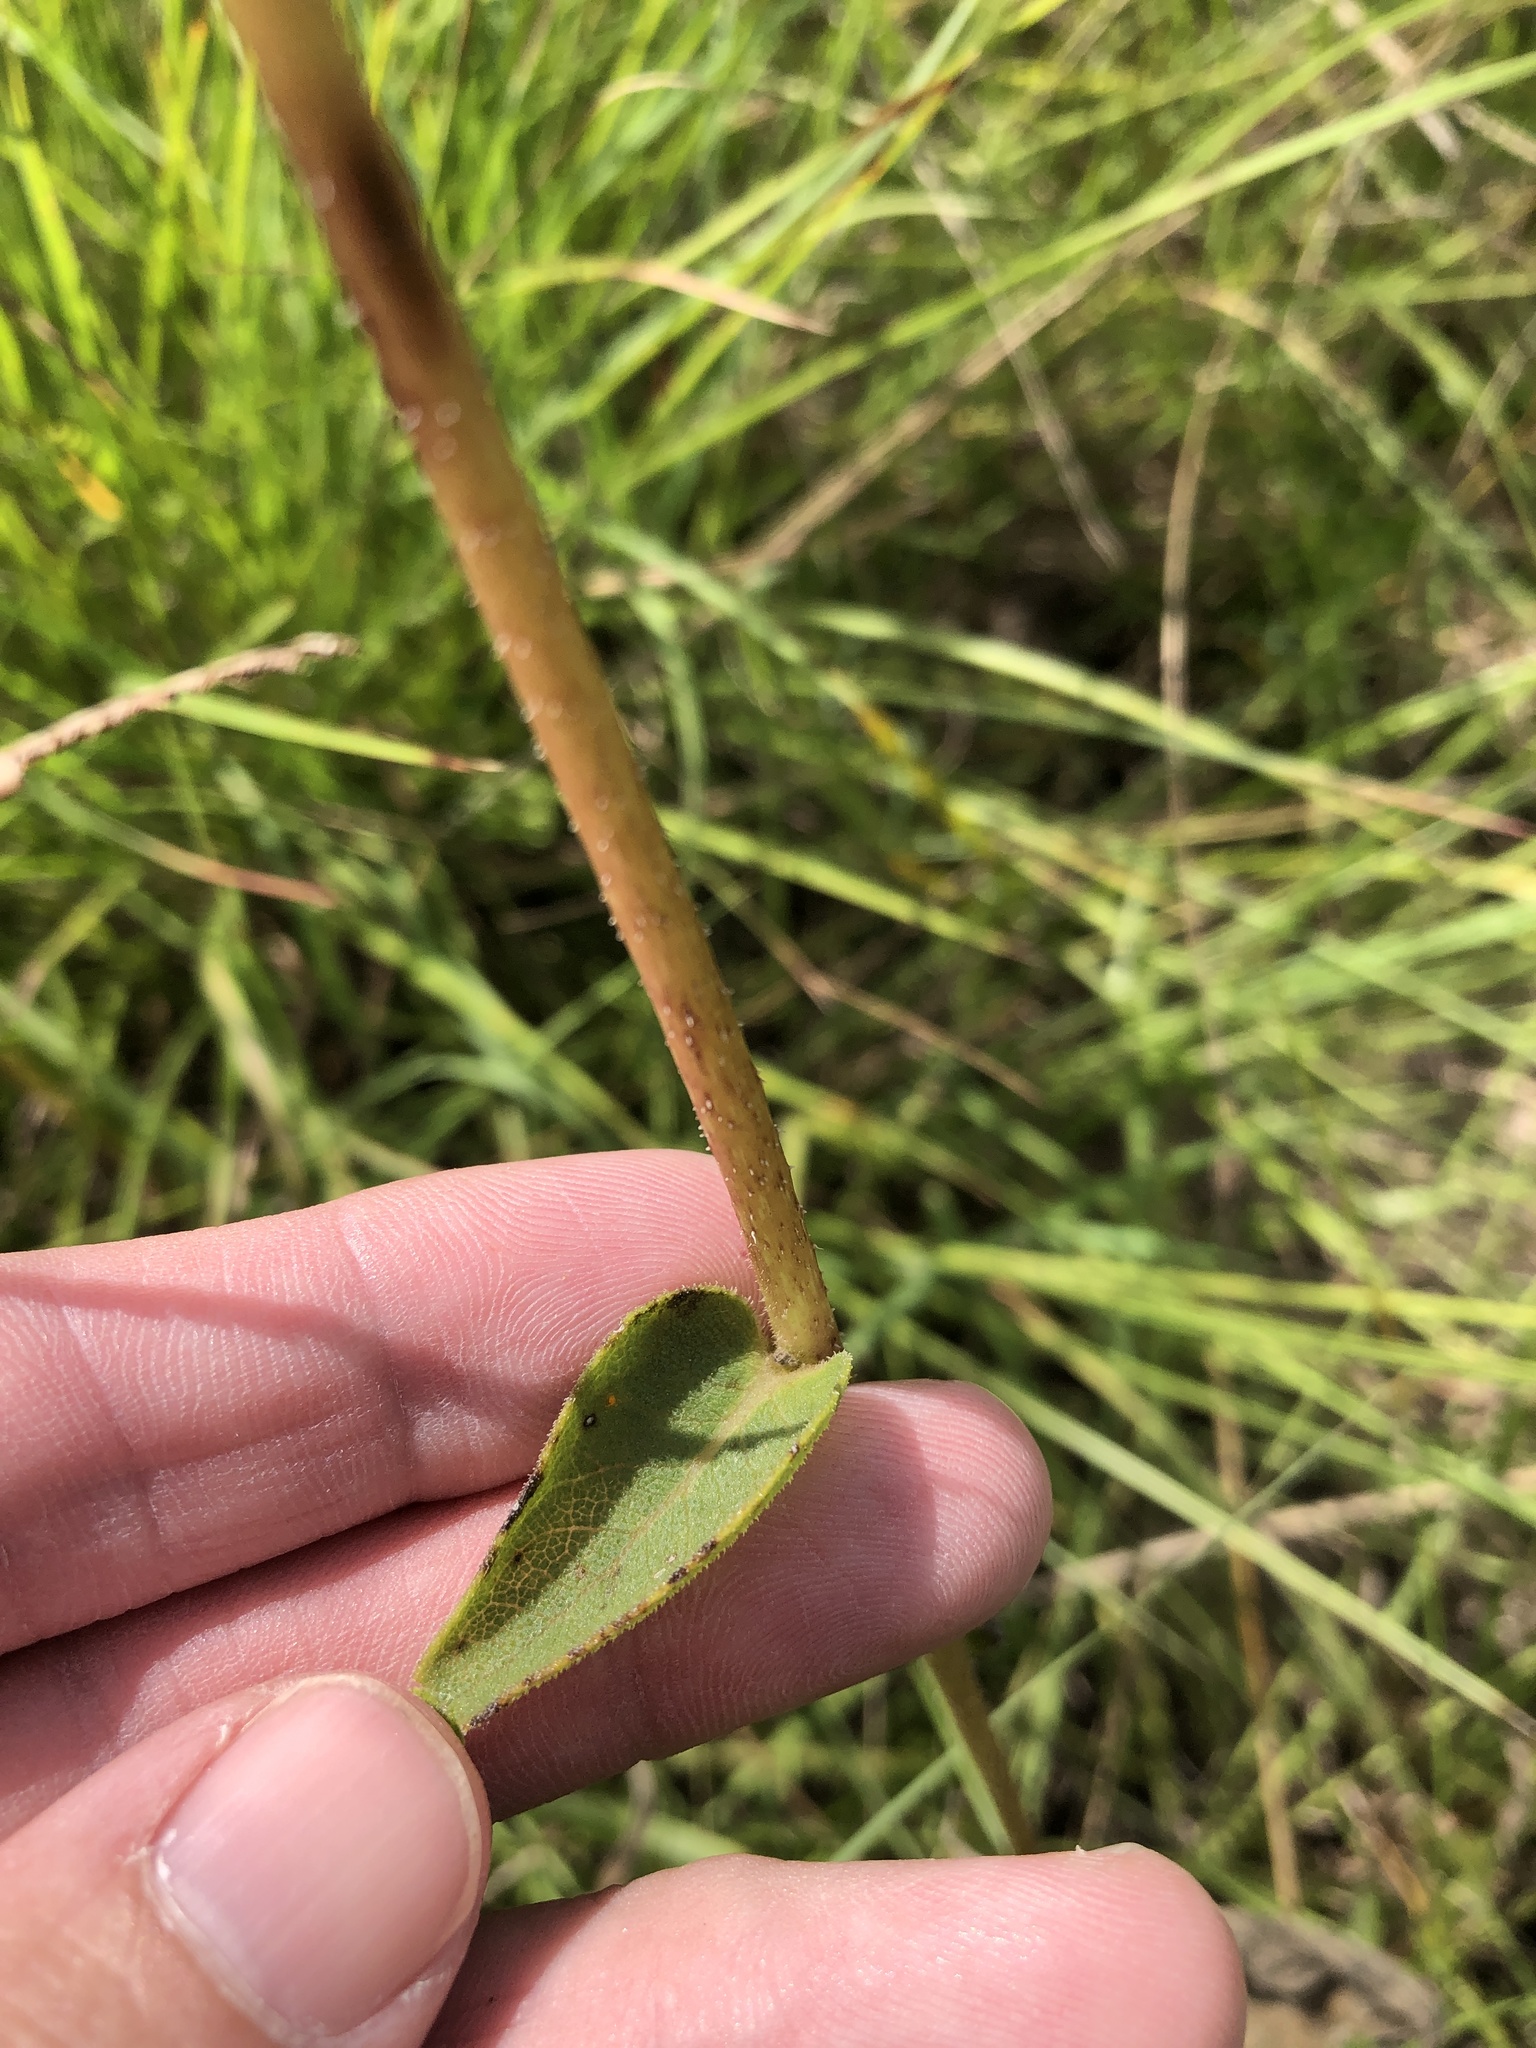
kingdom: Plantae
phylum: Tracheophyta
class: Magnoliopsida
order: Asterales
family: Asteraceae
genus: Silphium
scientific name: Silphium radula
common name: Roughleaf rosinweed
